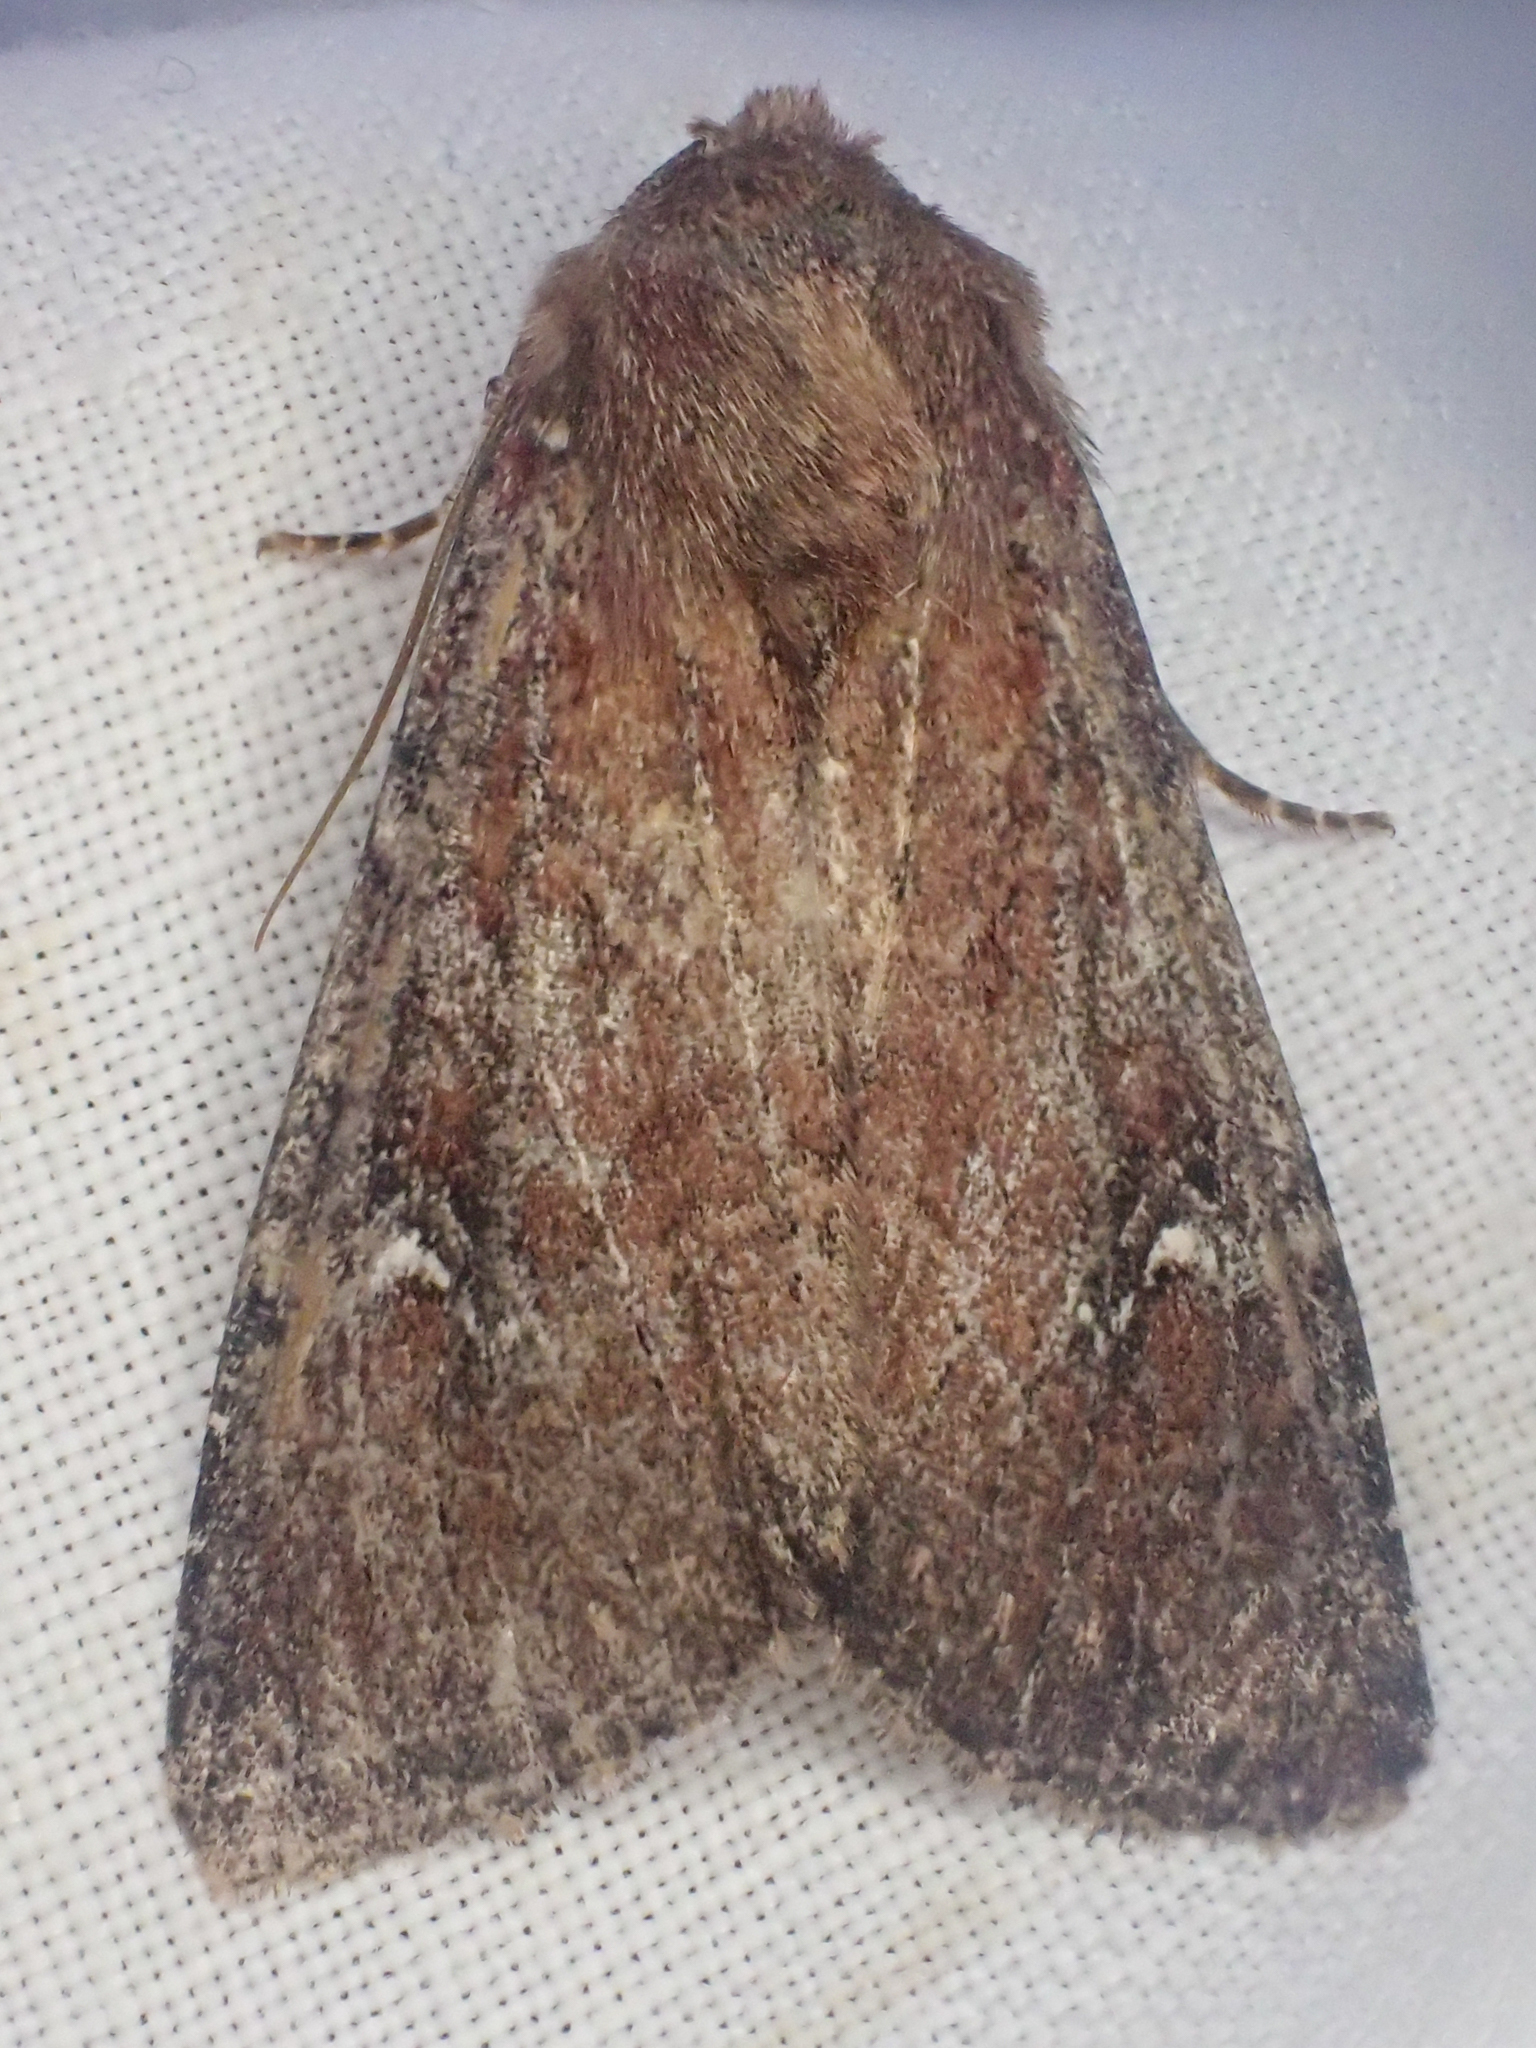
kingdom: Animalia
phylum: Arthropoda
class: Insecta
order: Lepidoptera
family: Noctuidae
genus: Apamea
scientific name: Apamea cogitata
